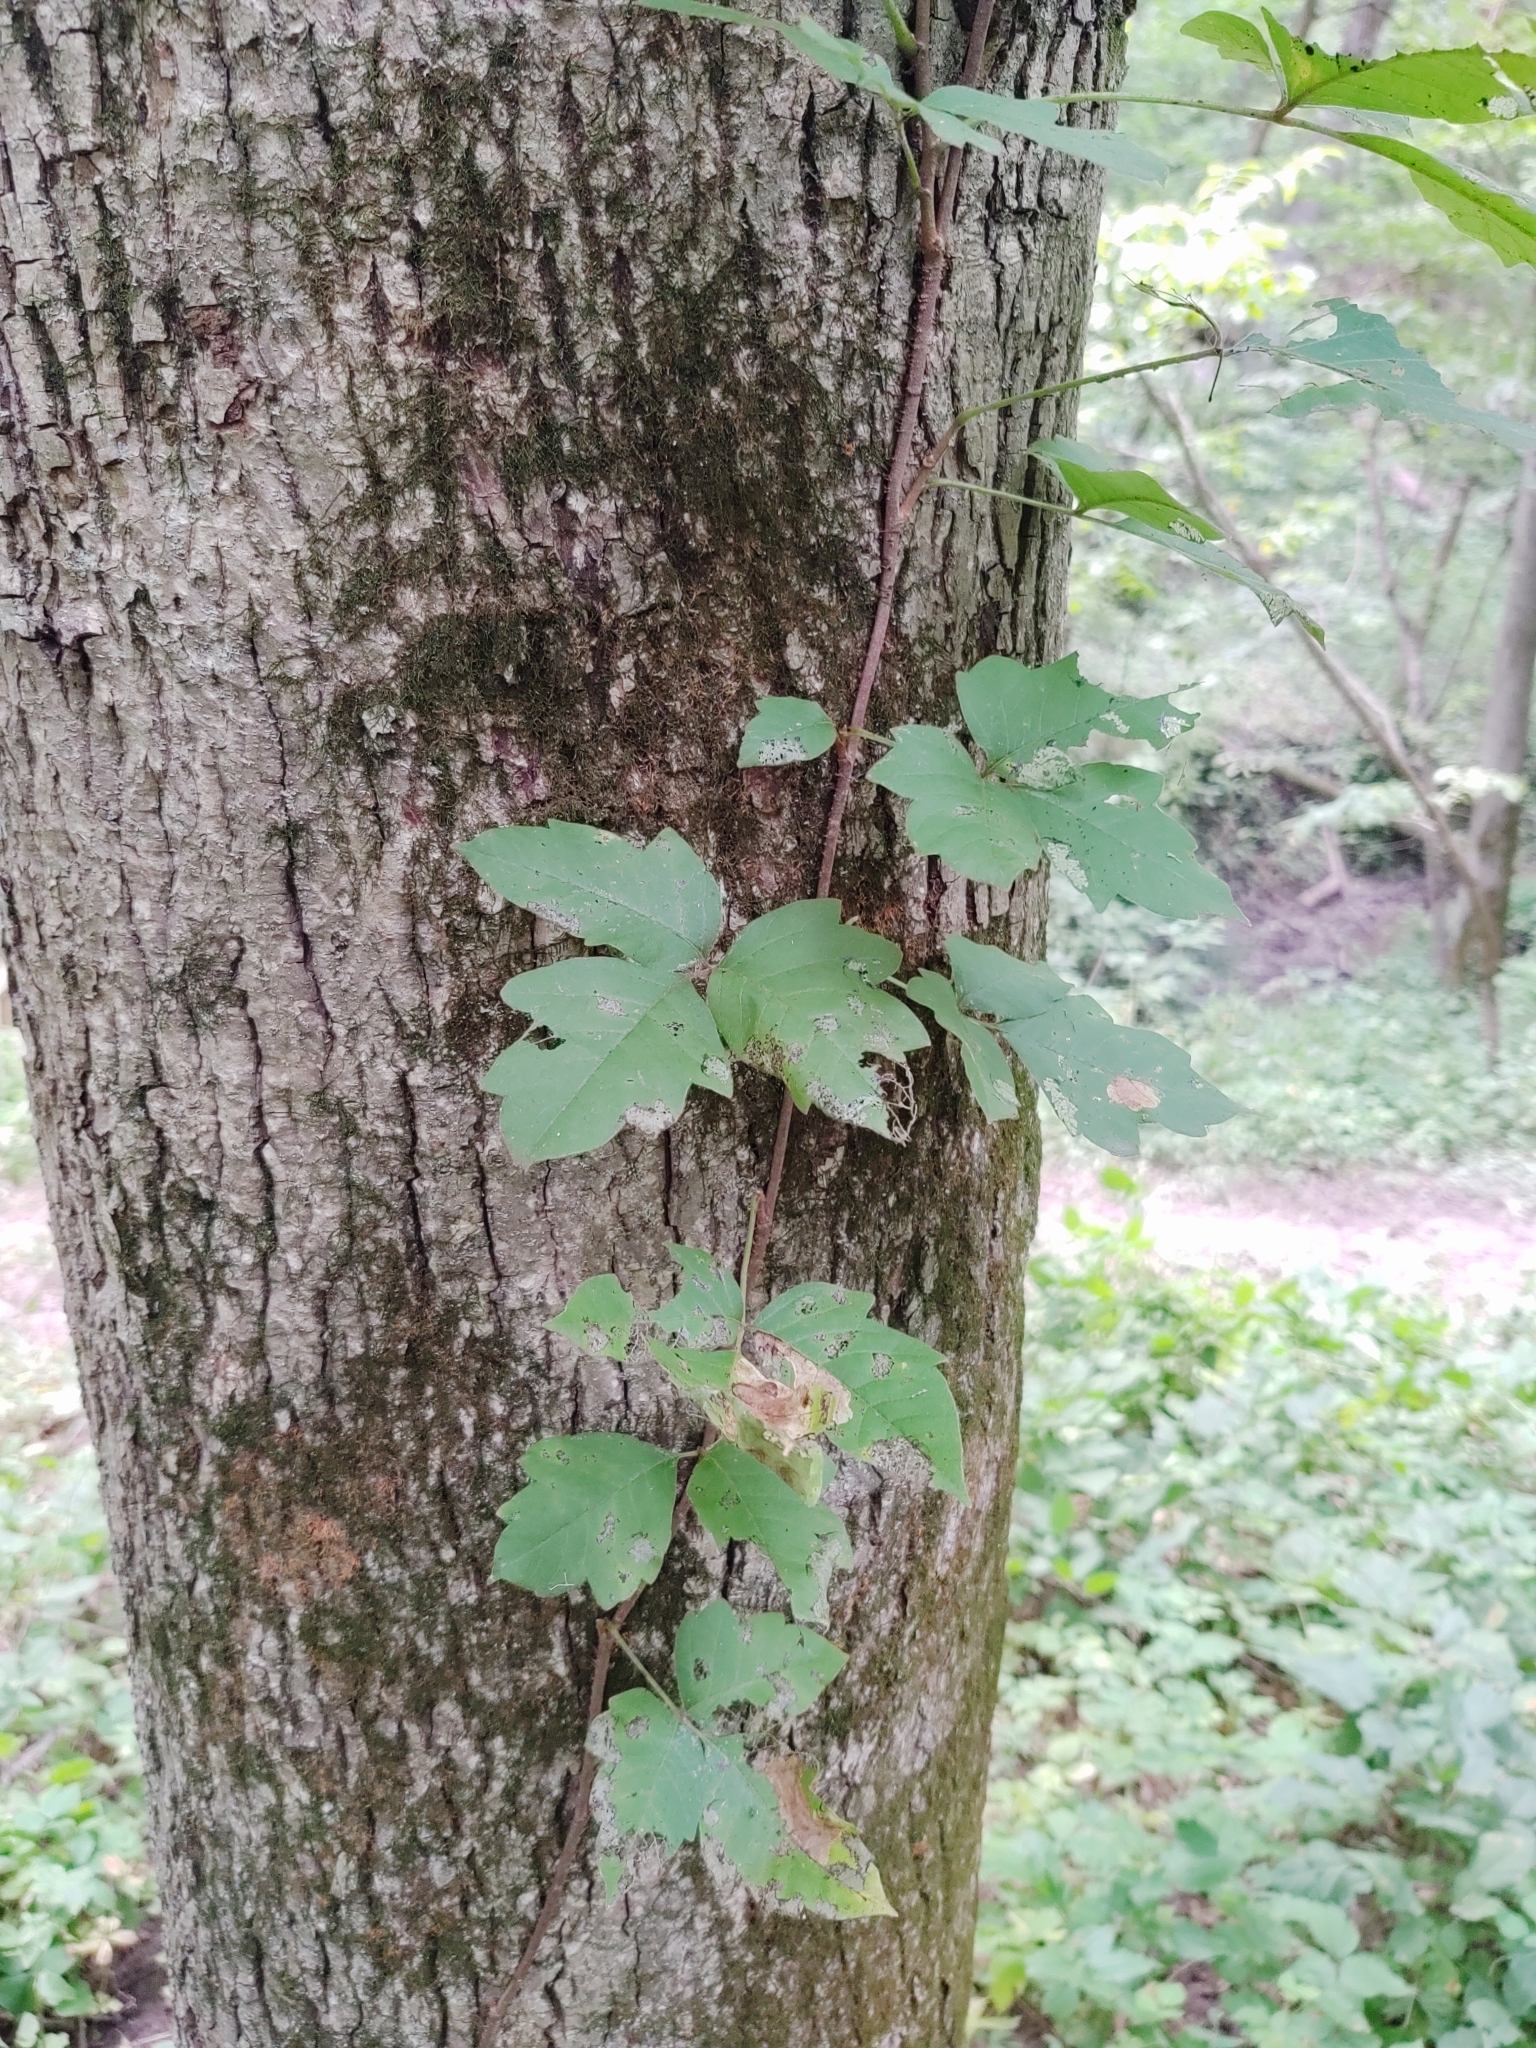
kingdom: Plantae
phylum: Tracheophyta
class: Magnoliopsida
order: Sapindales
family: Anacardiaceae
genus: Toxicodendron
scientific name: Toxicodendron radicans
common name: Poison ivy
